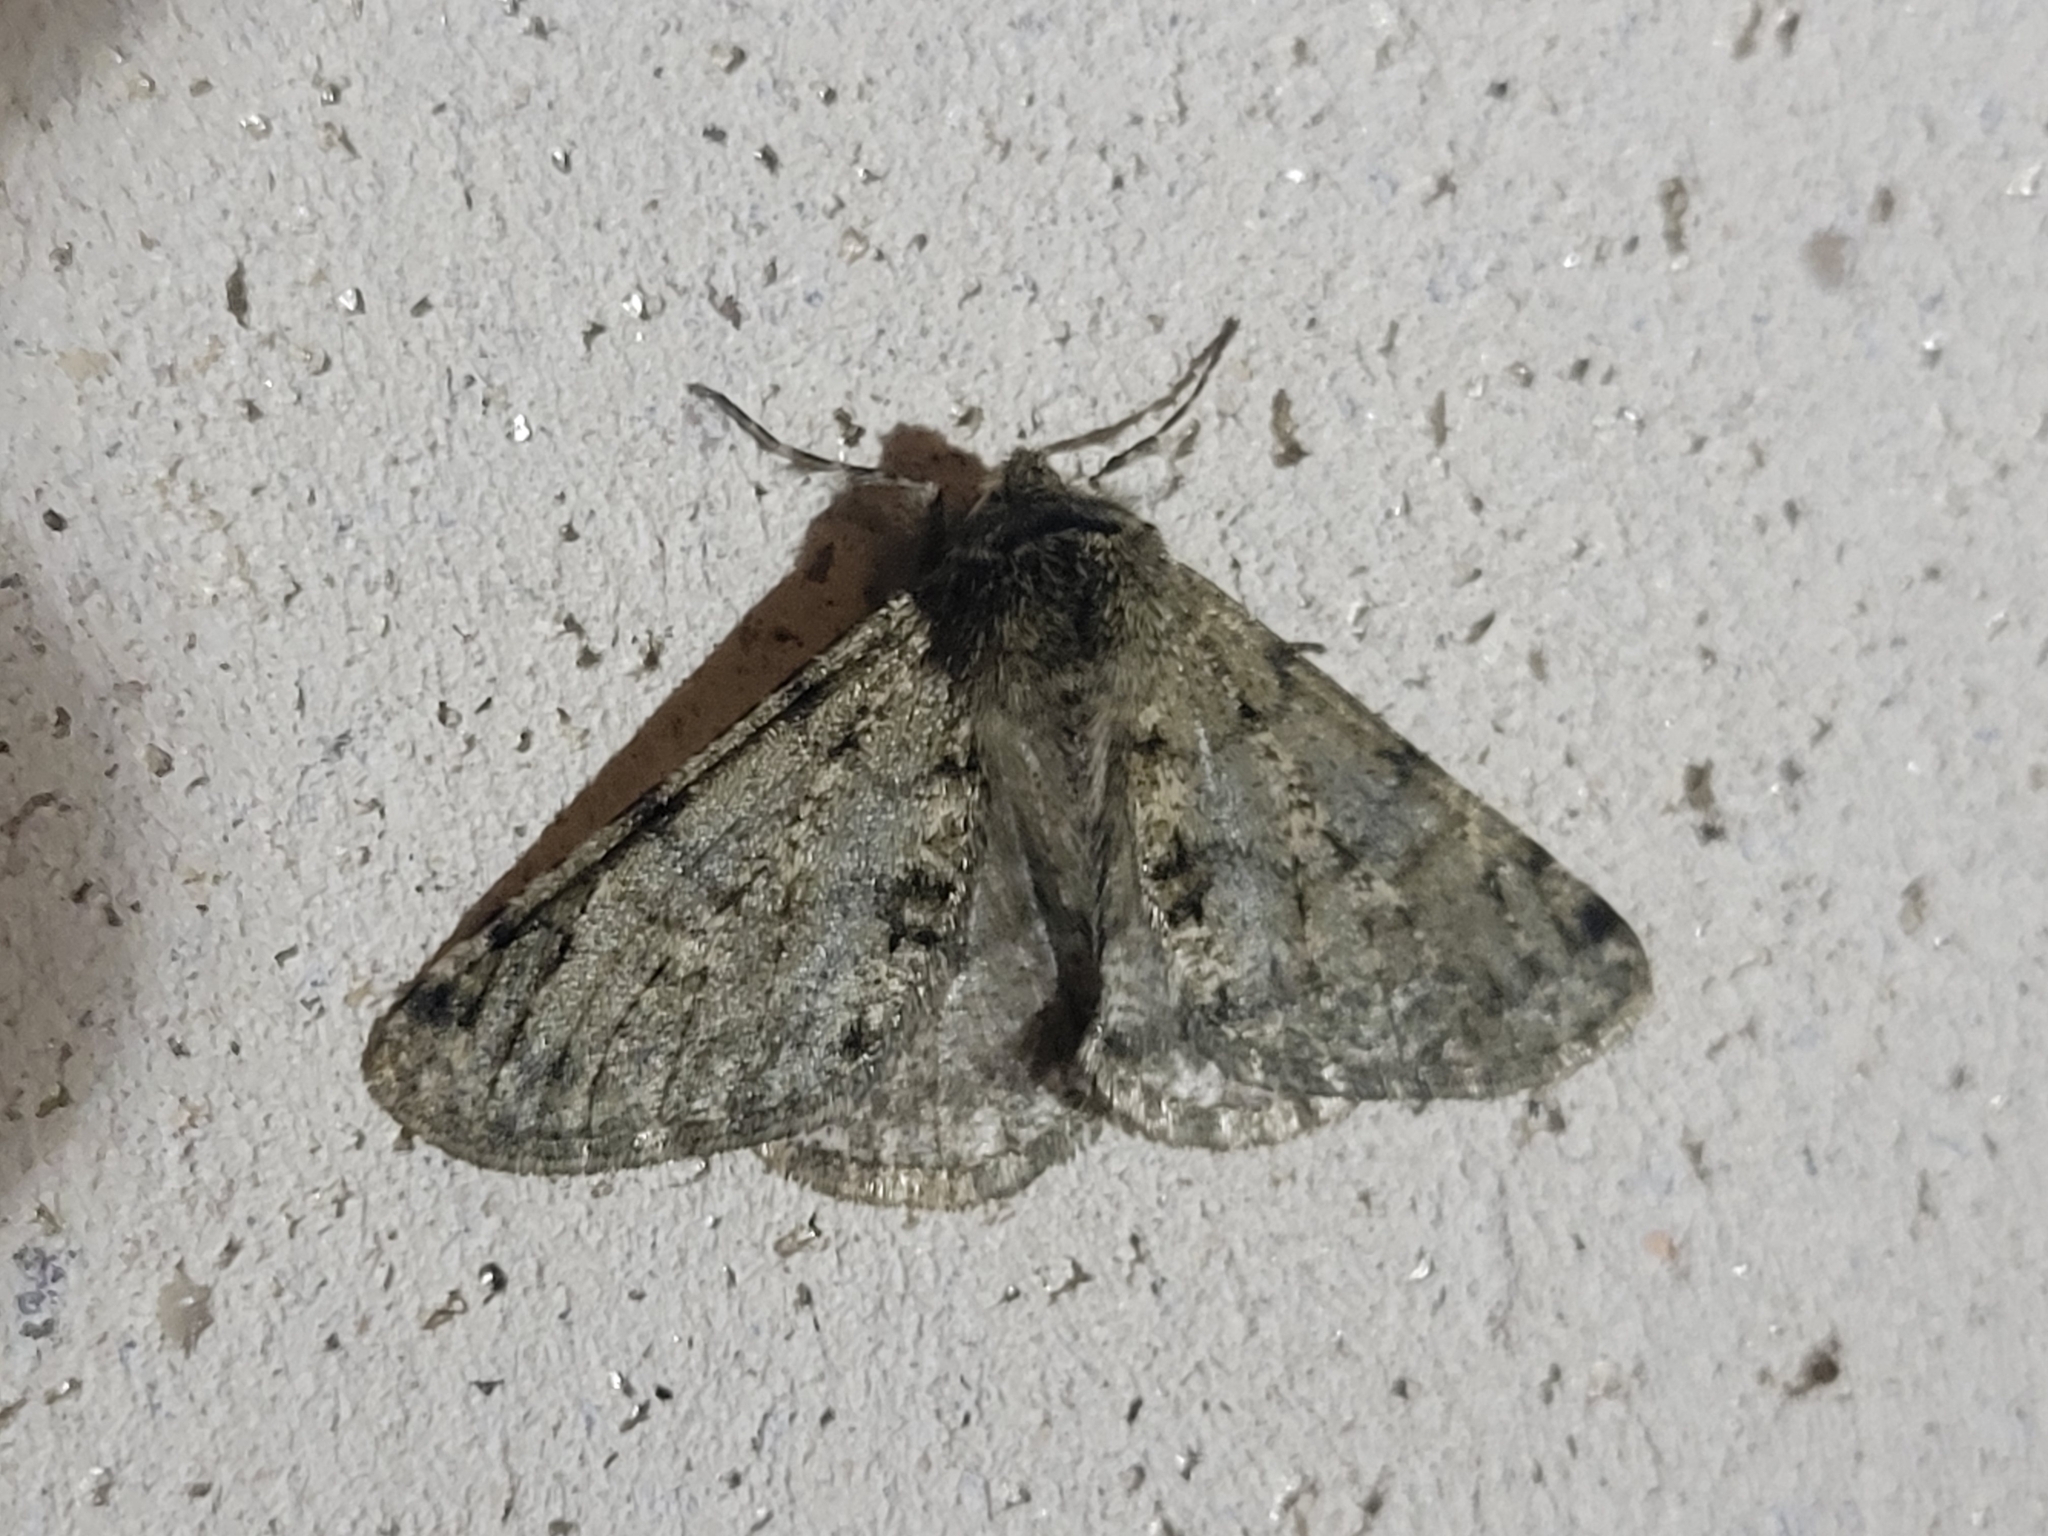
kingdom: Animalia
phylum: Arthropoda
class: Insecta
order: Lepidoptera
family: Geometridae
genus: Phigalia
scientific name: Phigalia pilosaria
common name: Pale brindled beauty
